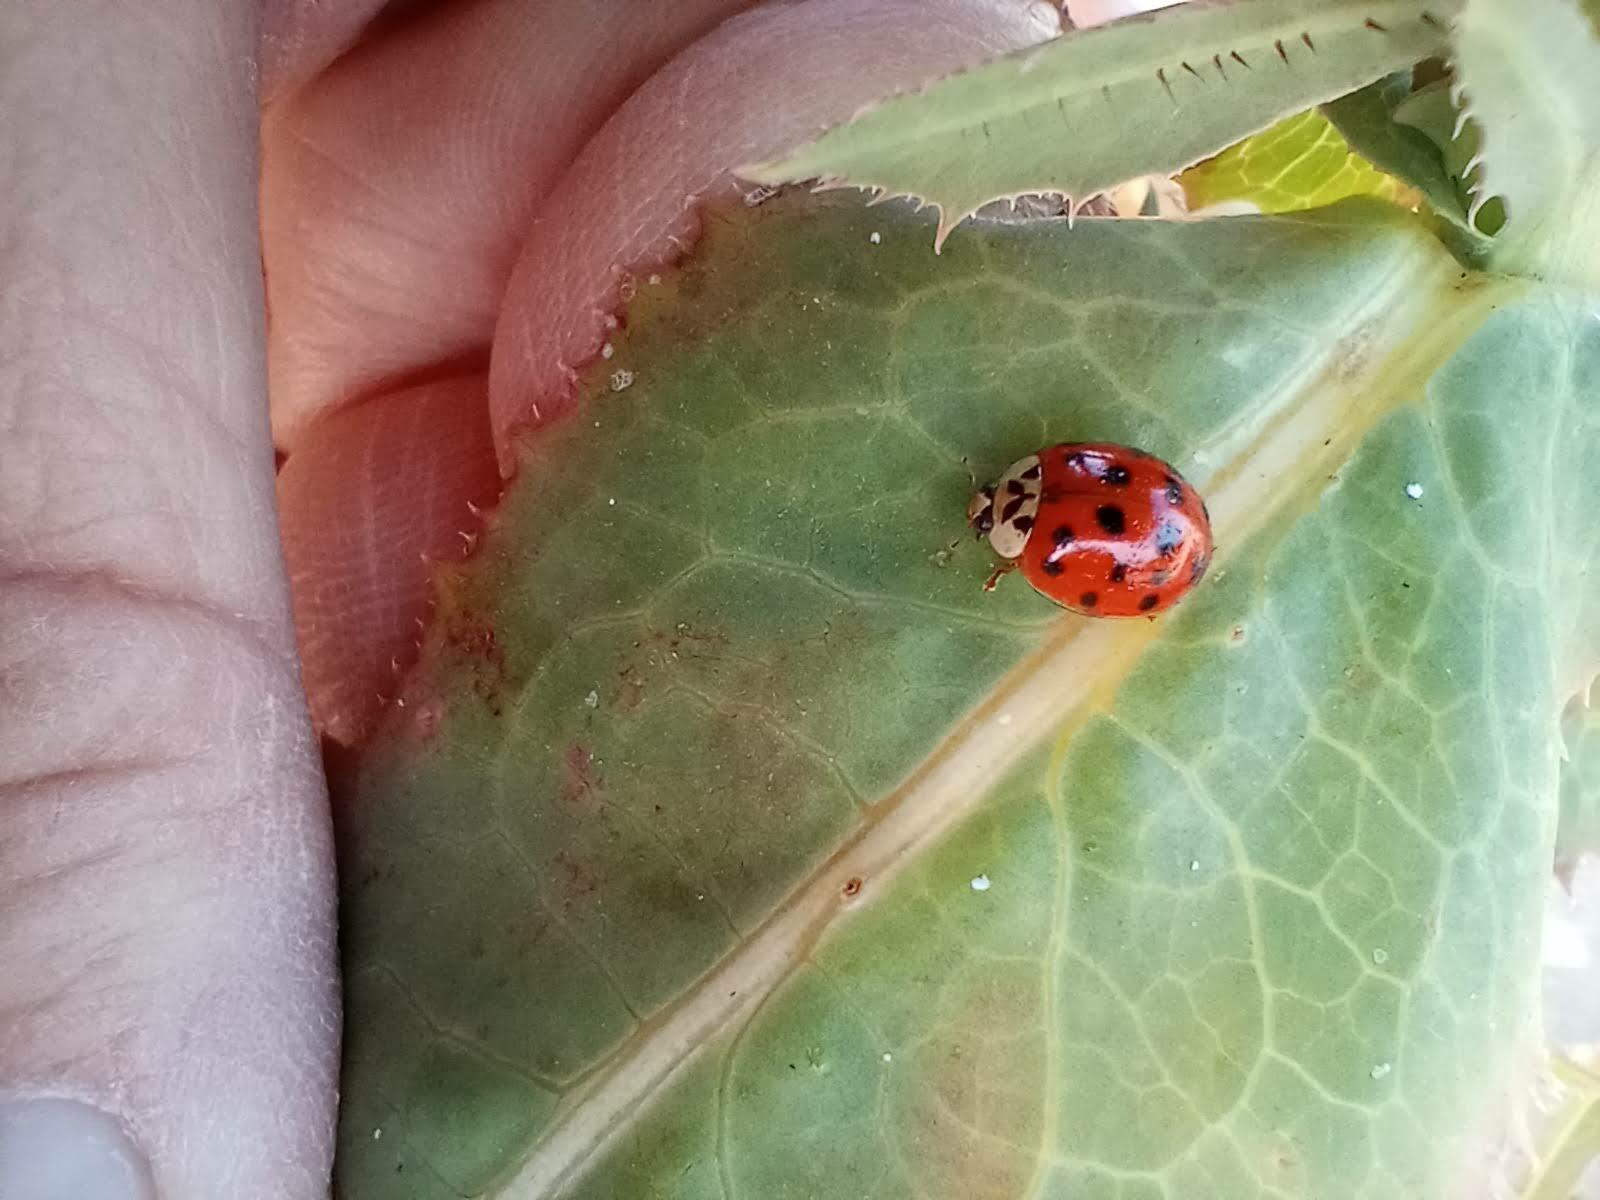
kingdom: Animalia
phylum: Arthropoda
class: Insecta
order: Coleoptera
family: Coccinellidae
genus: Harmonia
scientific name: Harmonia axyridis
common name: Harlequin ladybird
